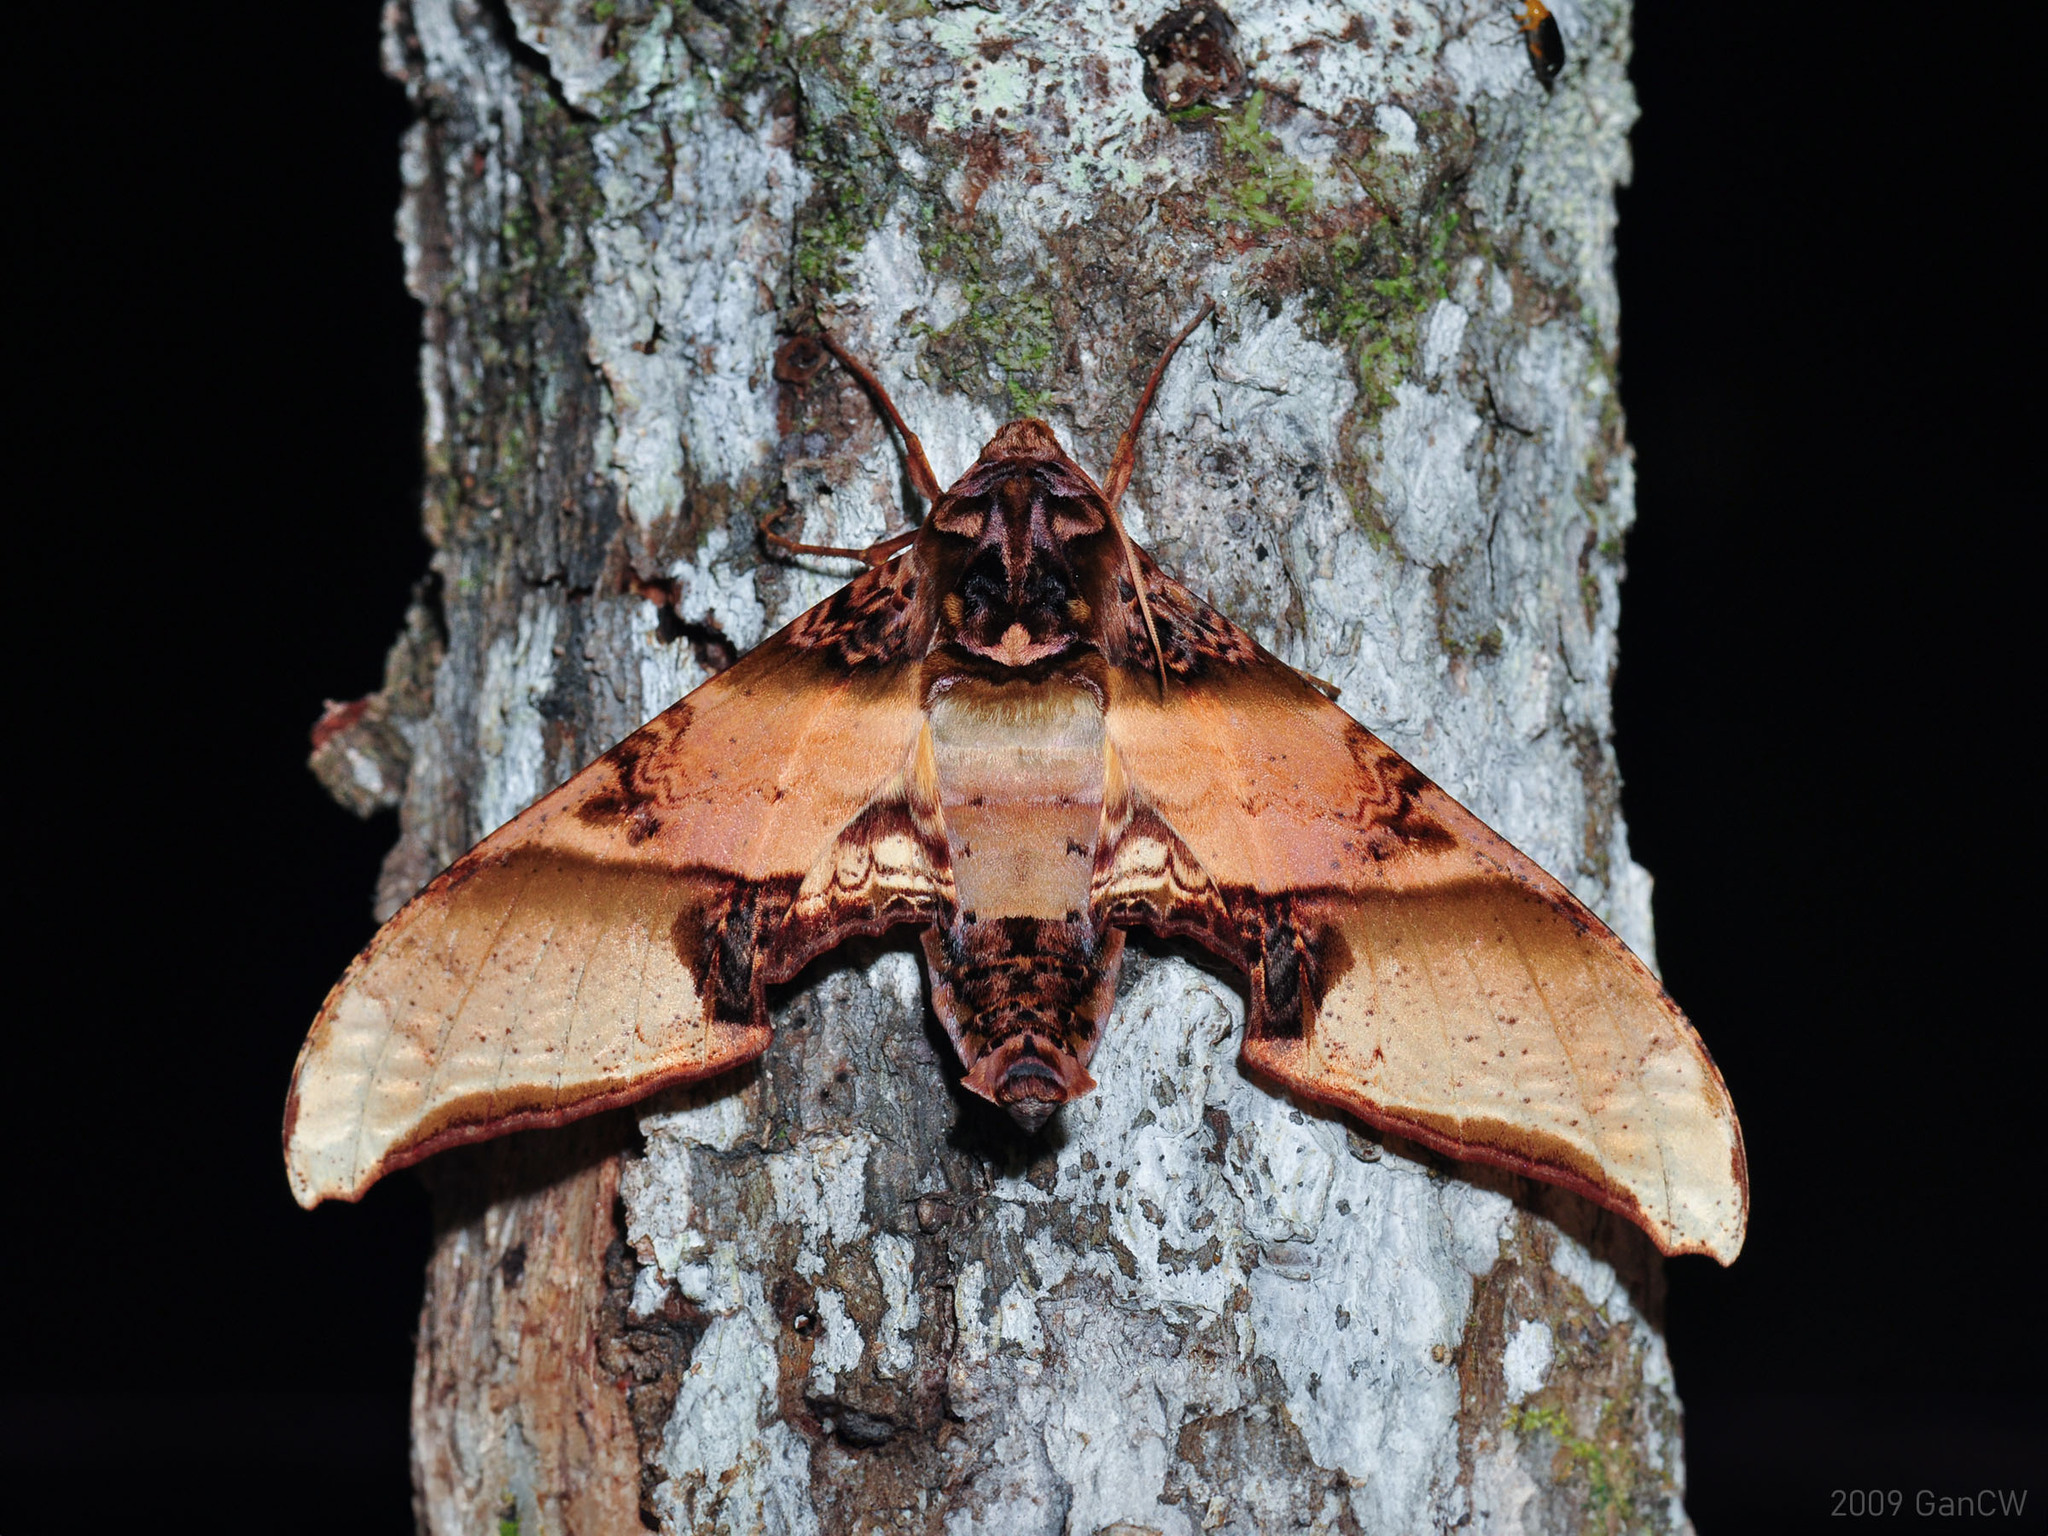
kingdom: Animalia
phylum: Arthropoda
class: Insecta
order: Lepidoptera
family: Sphingidae
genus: Amplypterus
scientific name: Amplypterus mansoni
